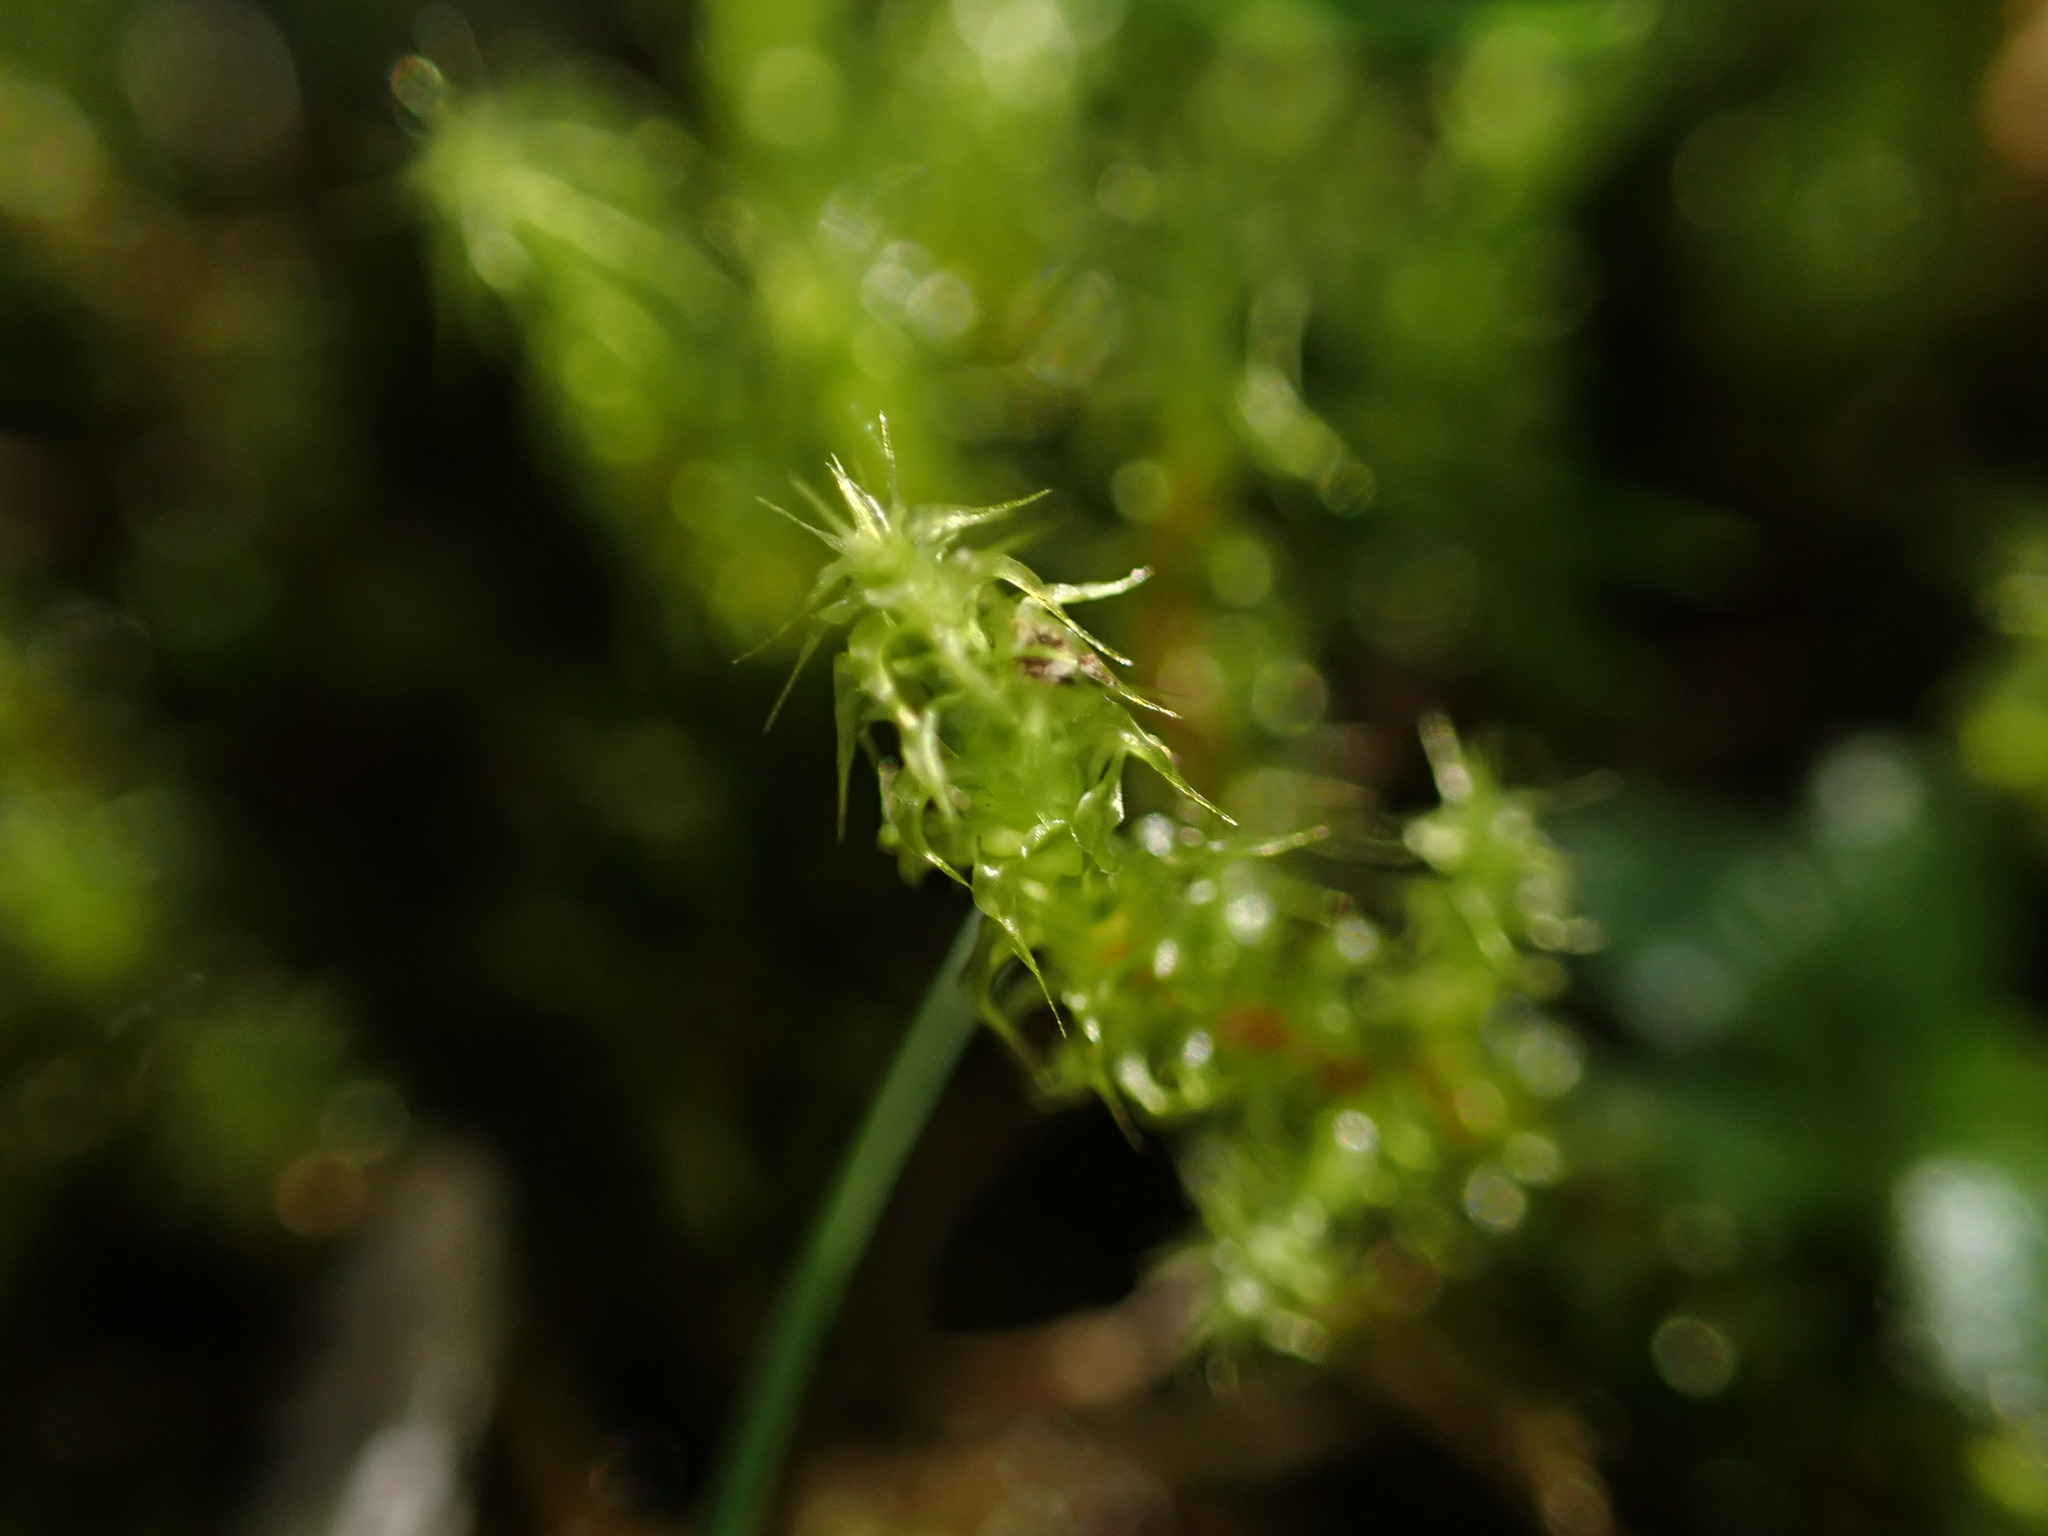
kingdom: Plantae
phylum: Bryophyta
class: Bryopsida
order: Hypnales
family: Hylocomiaceae
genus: Rhytidiadelphus
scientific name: Rhytidiadelphus squarrosus
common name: Springy turf-moss
